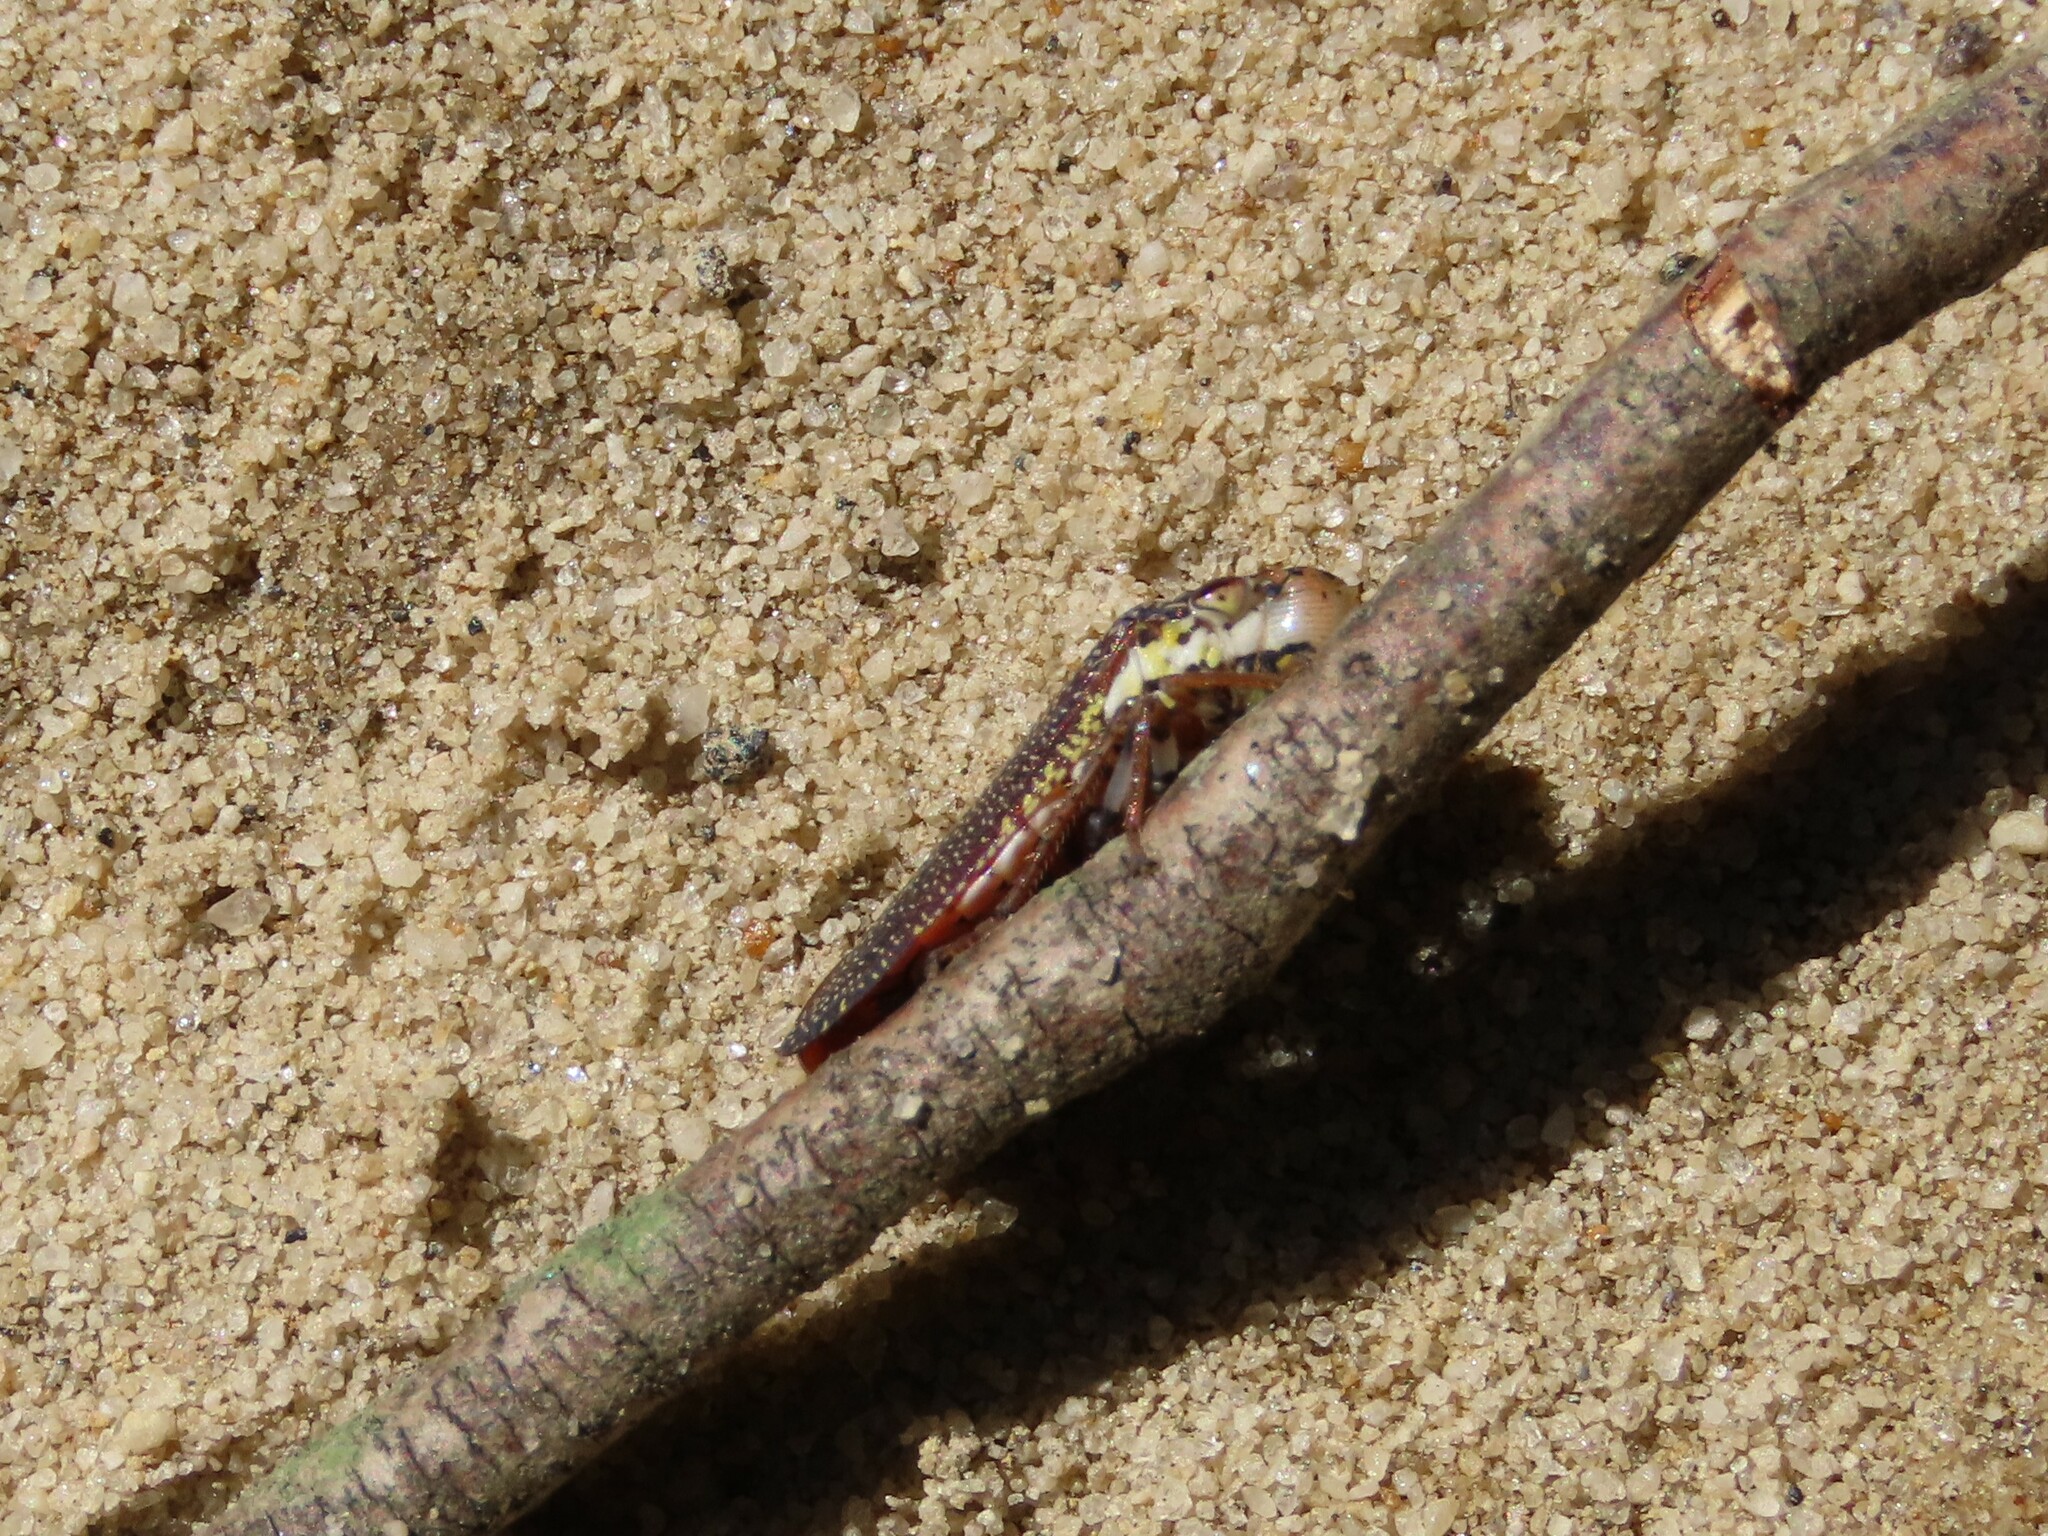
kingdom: Animalia
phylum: Arthropoda
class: Insecta
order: Hemiptera
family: Cicadellidae
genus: Paraulacizes
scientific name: Paraulacizes irrorata
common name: Speckled sharpshooter
